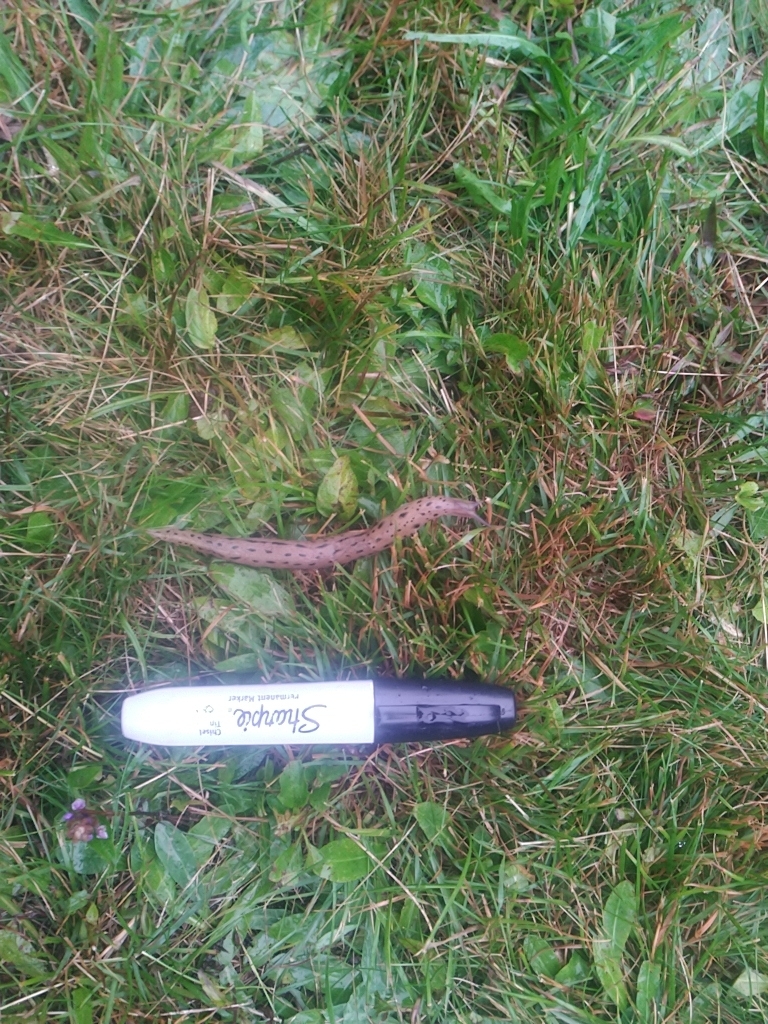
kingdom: Animalia
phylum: Mollusca
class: Gastropoda
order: Stylommatophora
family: Limacidae
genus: Limax
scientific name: Limax maximus
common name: Great grey slug
